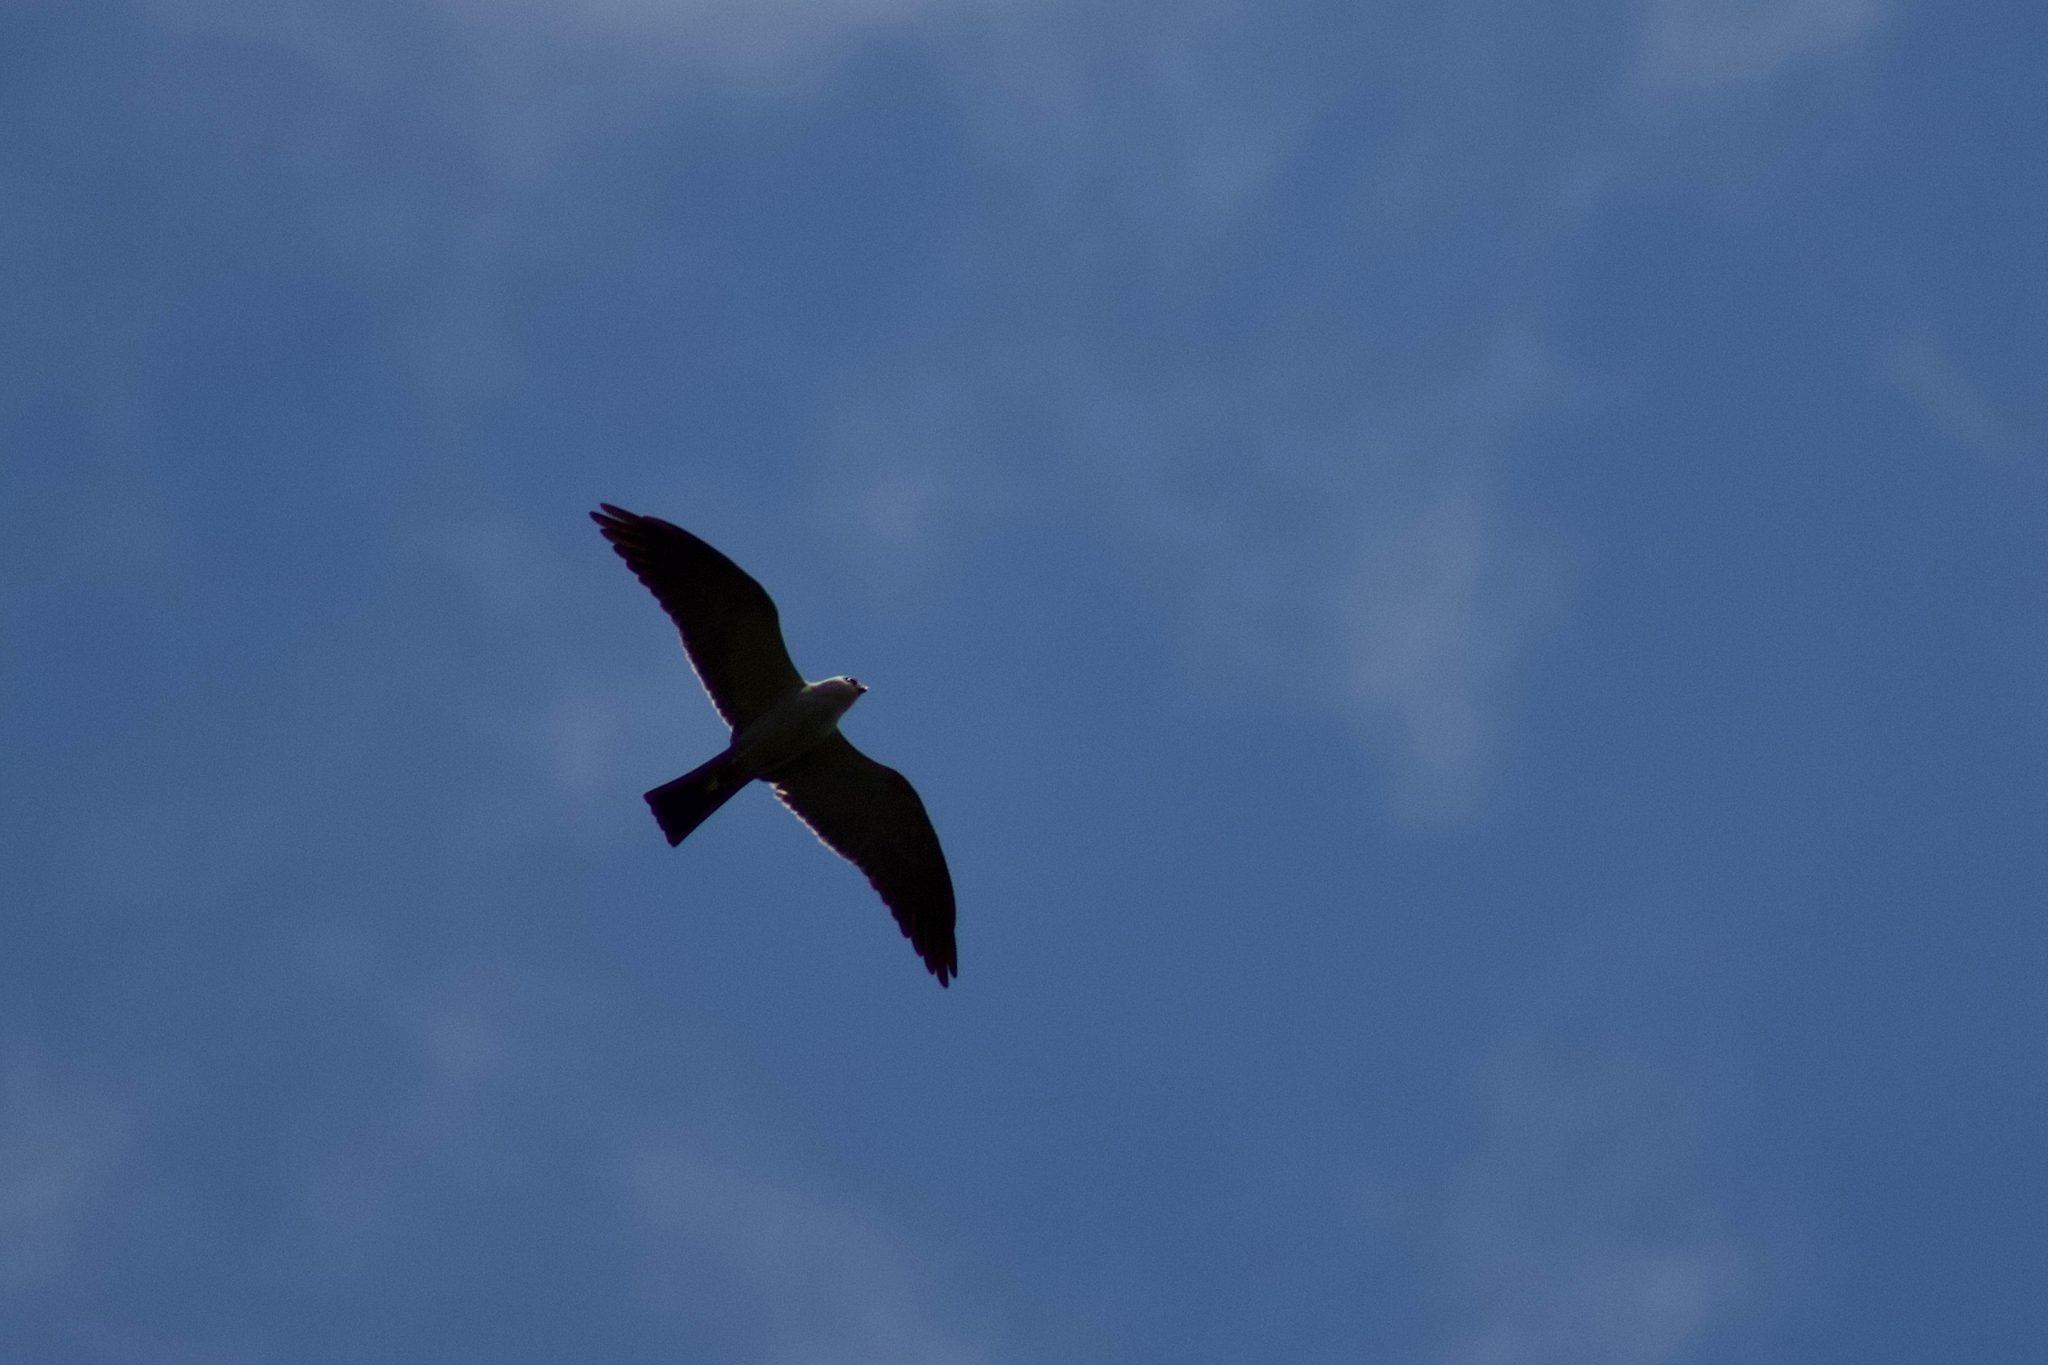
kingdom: Animalia
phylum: Chordata
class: Aves
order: Accipitriformes
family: Accipitridae
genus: Ictinia
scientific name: Ictinia mississippiensis
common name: Mississippi kite
